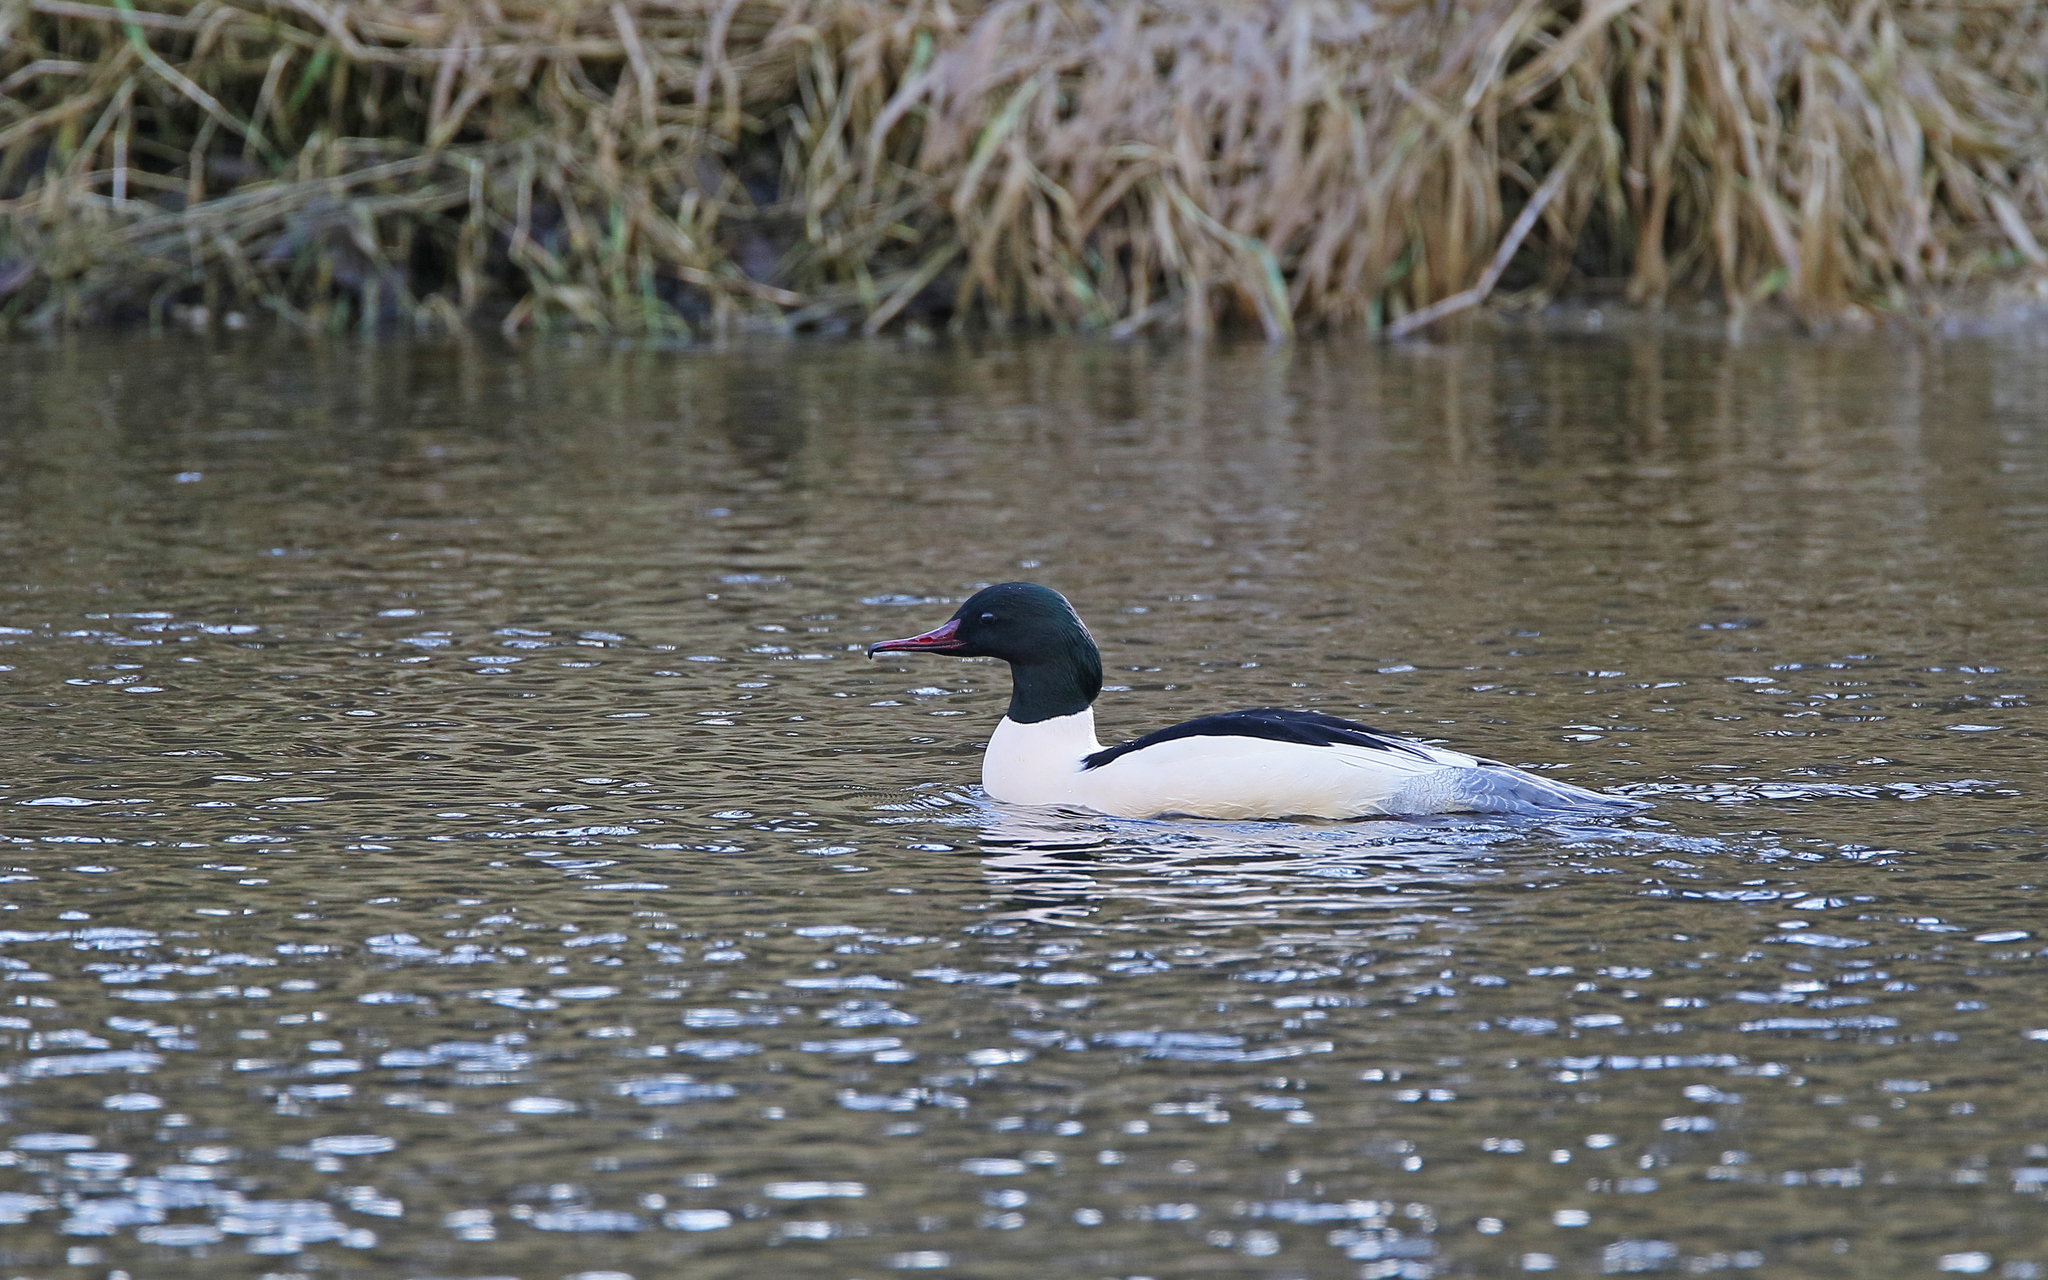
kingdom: Animalia
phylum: Chordata
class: Aves
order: Anseriformes
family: Anatidae
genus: Mergus
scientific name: Mergus merganser
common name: Common merganser
